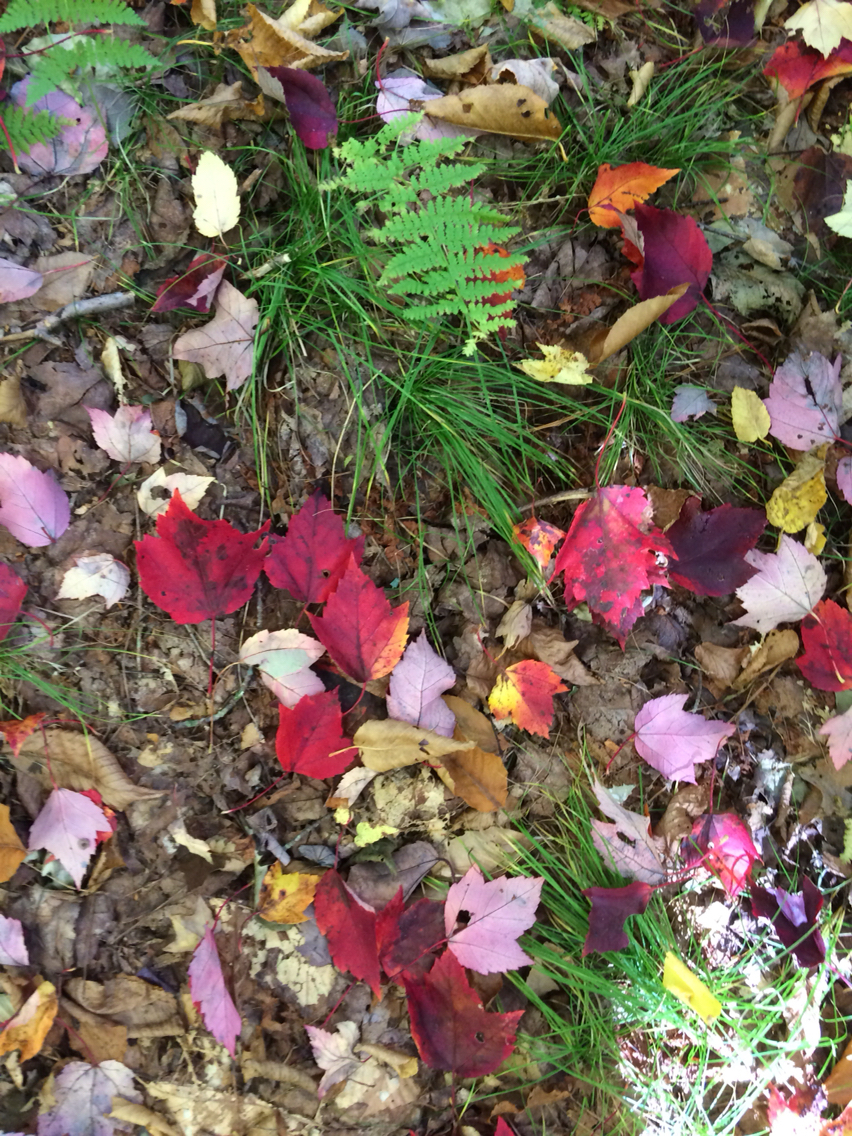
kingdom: Plantae
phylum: Tracheophyta
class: Magnoliopsida
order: Sapindales
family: Sapindaceae
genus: Acer
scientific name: Acer rubrum
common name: Red maple
